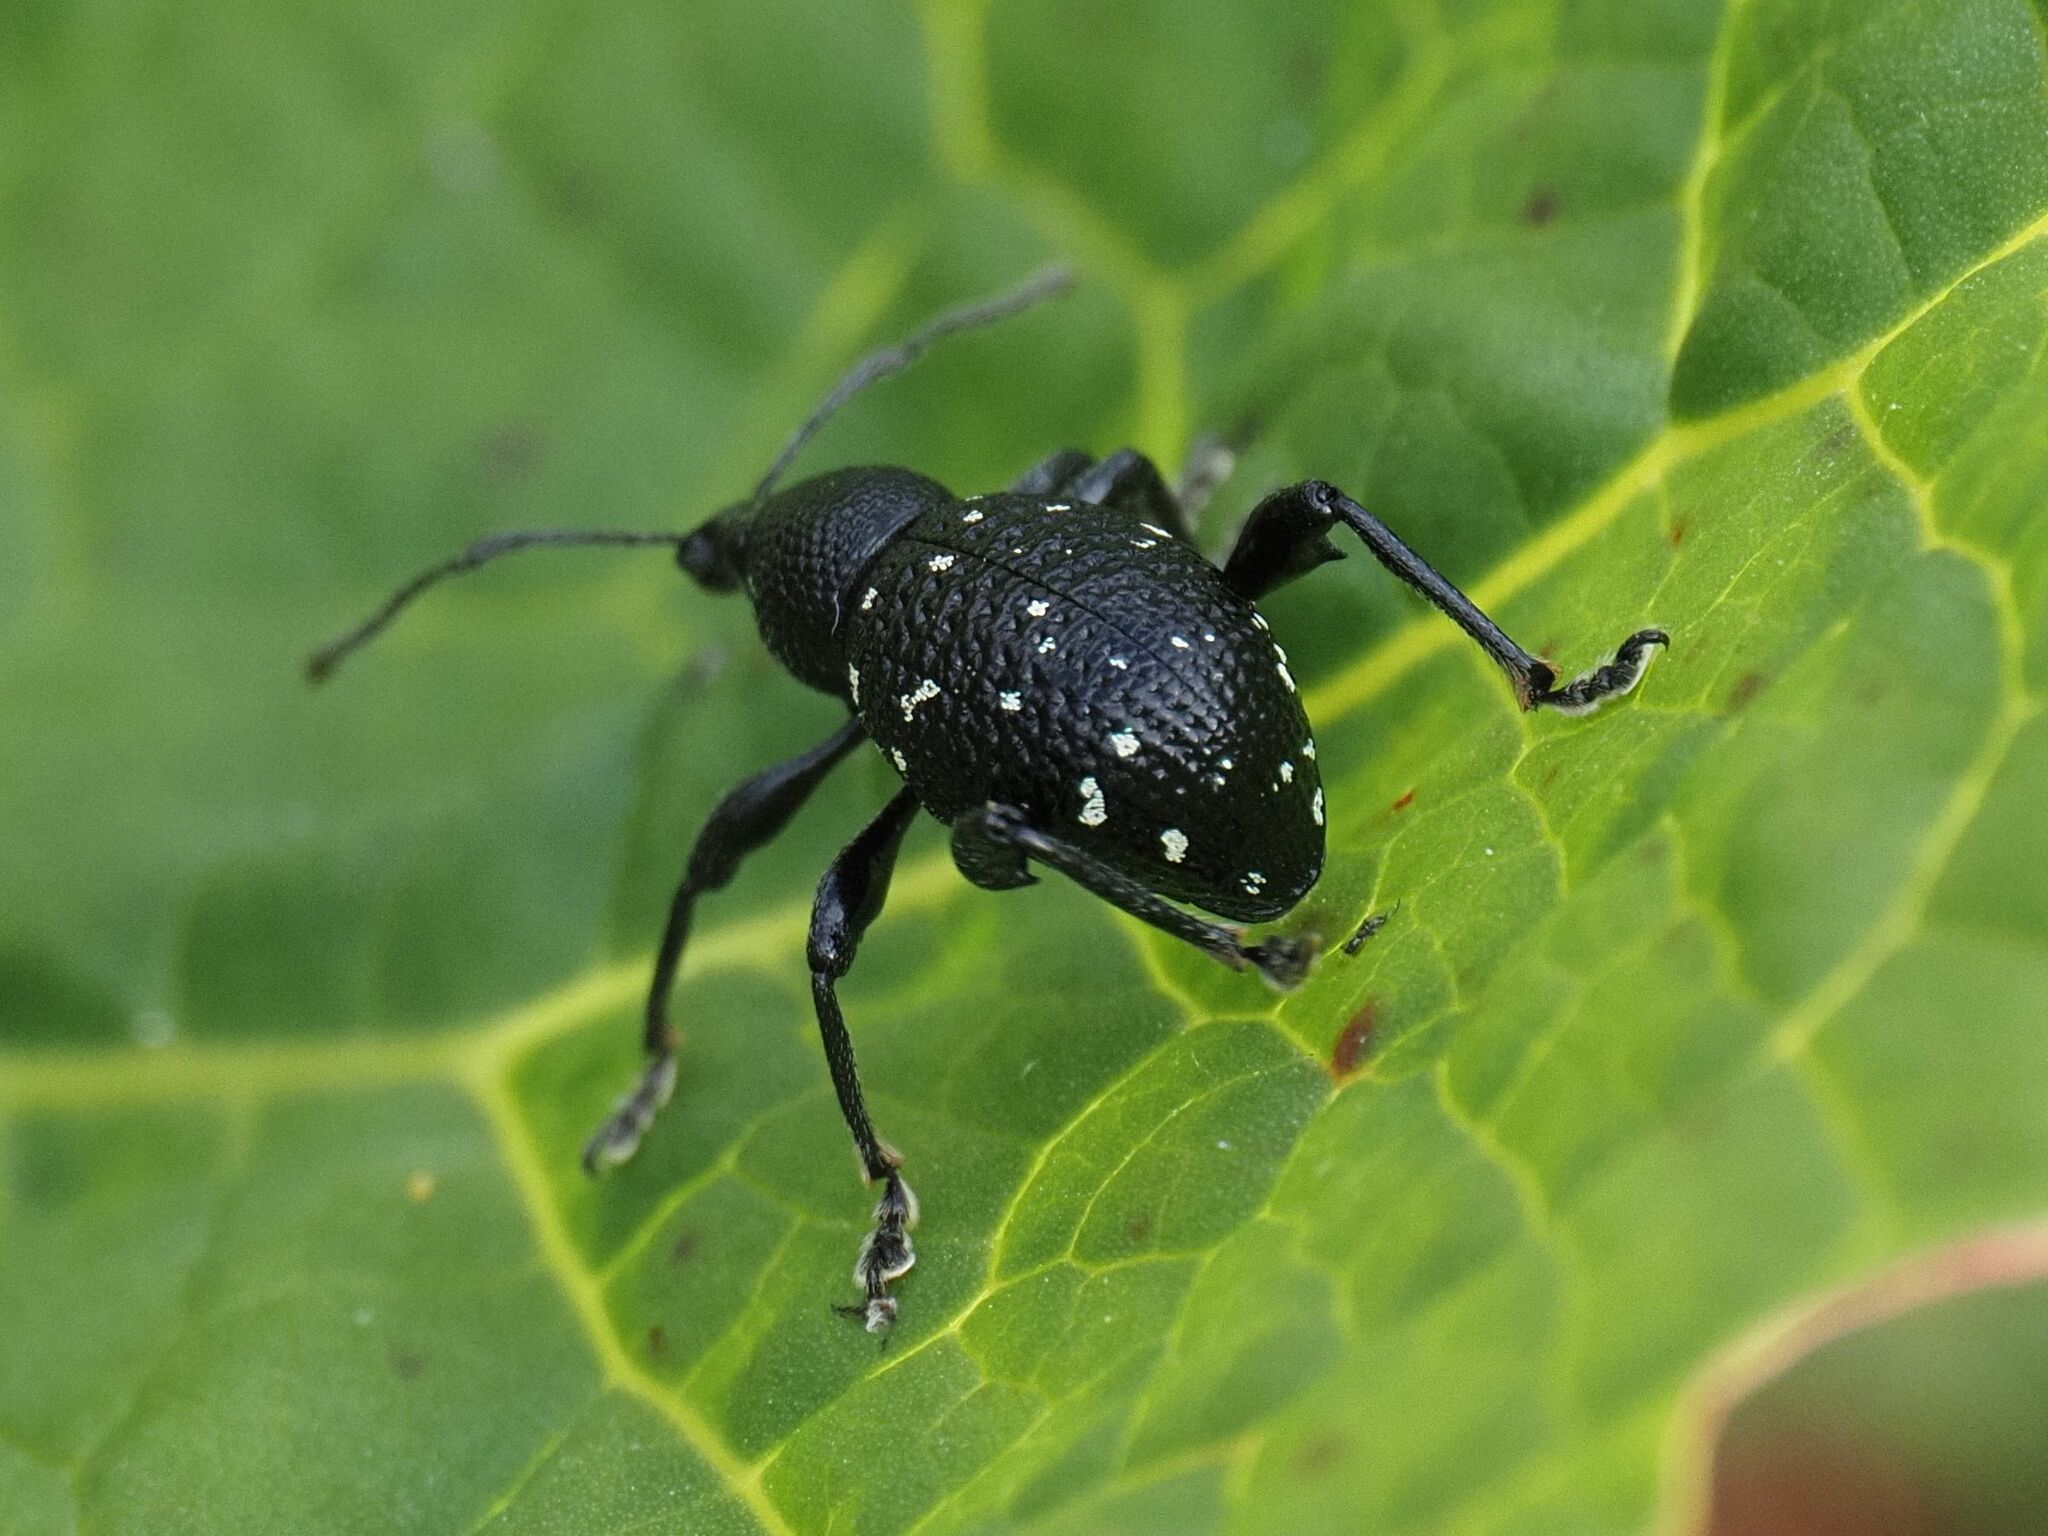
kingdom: Animalia
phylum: Arthropoda
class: Insecta
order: Coleoptera
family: Curculionidae
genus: Otiorhynchus
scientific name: Otiorhynchus gemmatus
